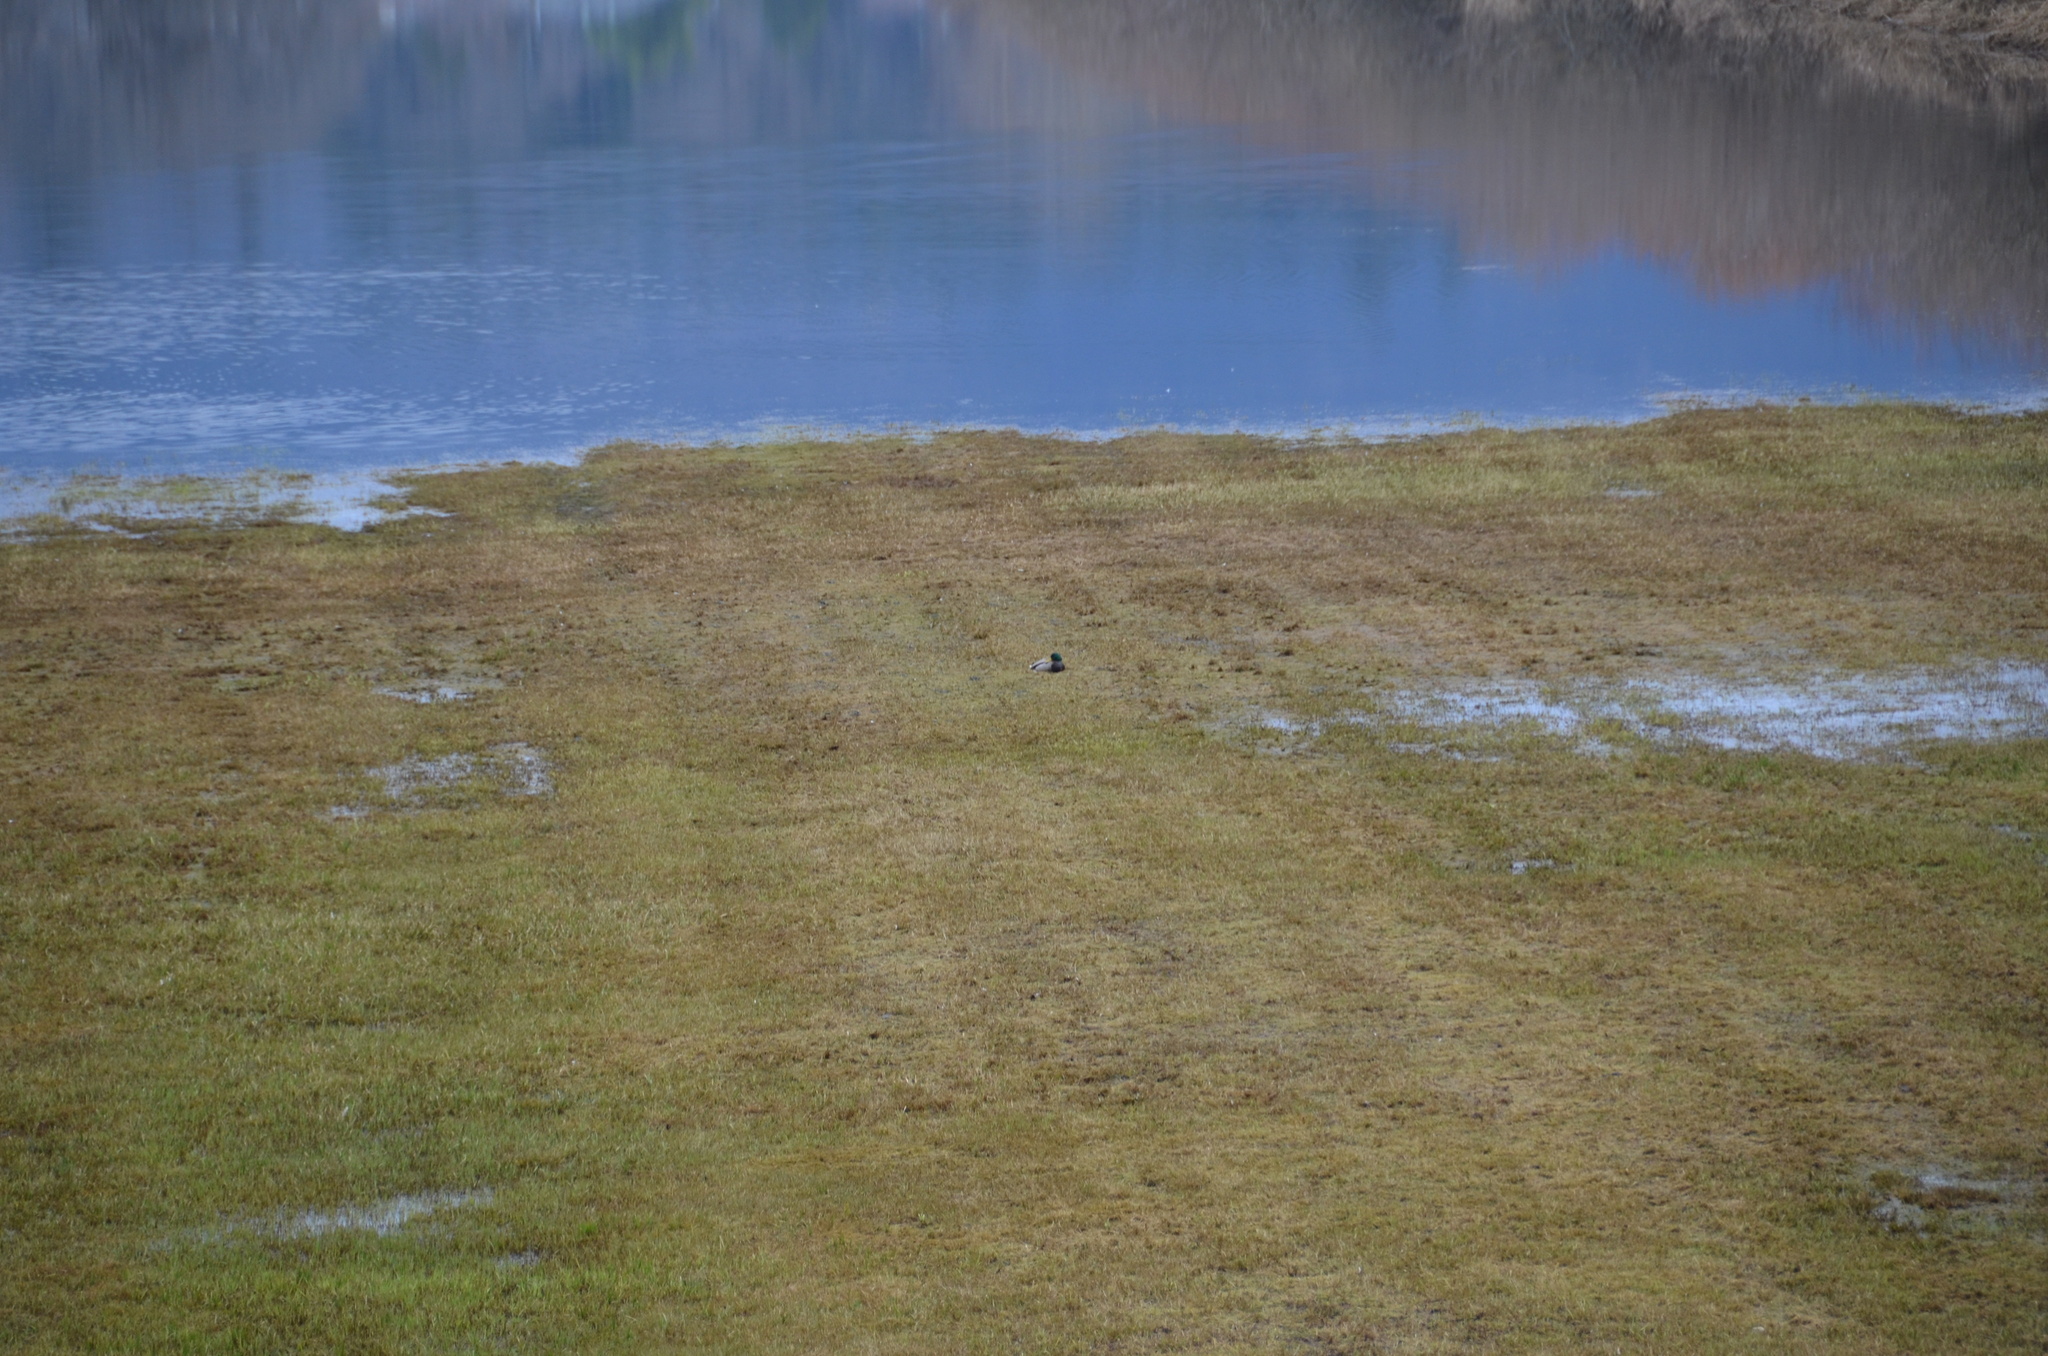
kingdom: Animalia
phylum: Chordata
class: Aves
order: Anseriformes
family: Anatidae
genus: Anas
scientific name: Anas platyrhynchos
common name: Mallard
